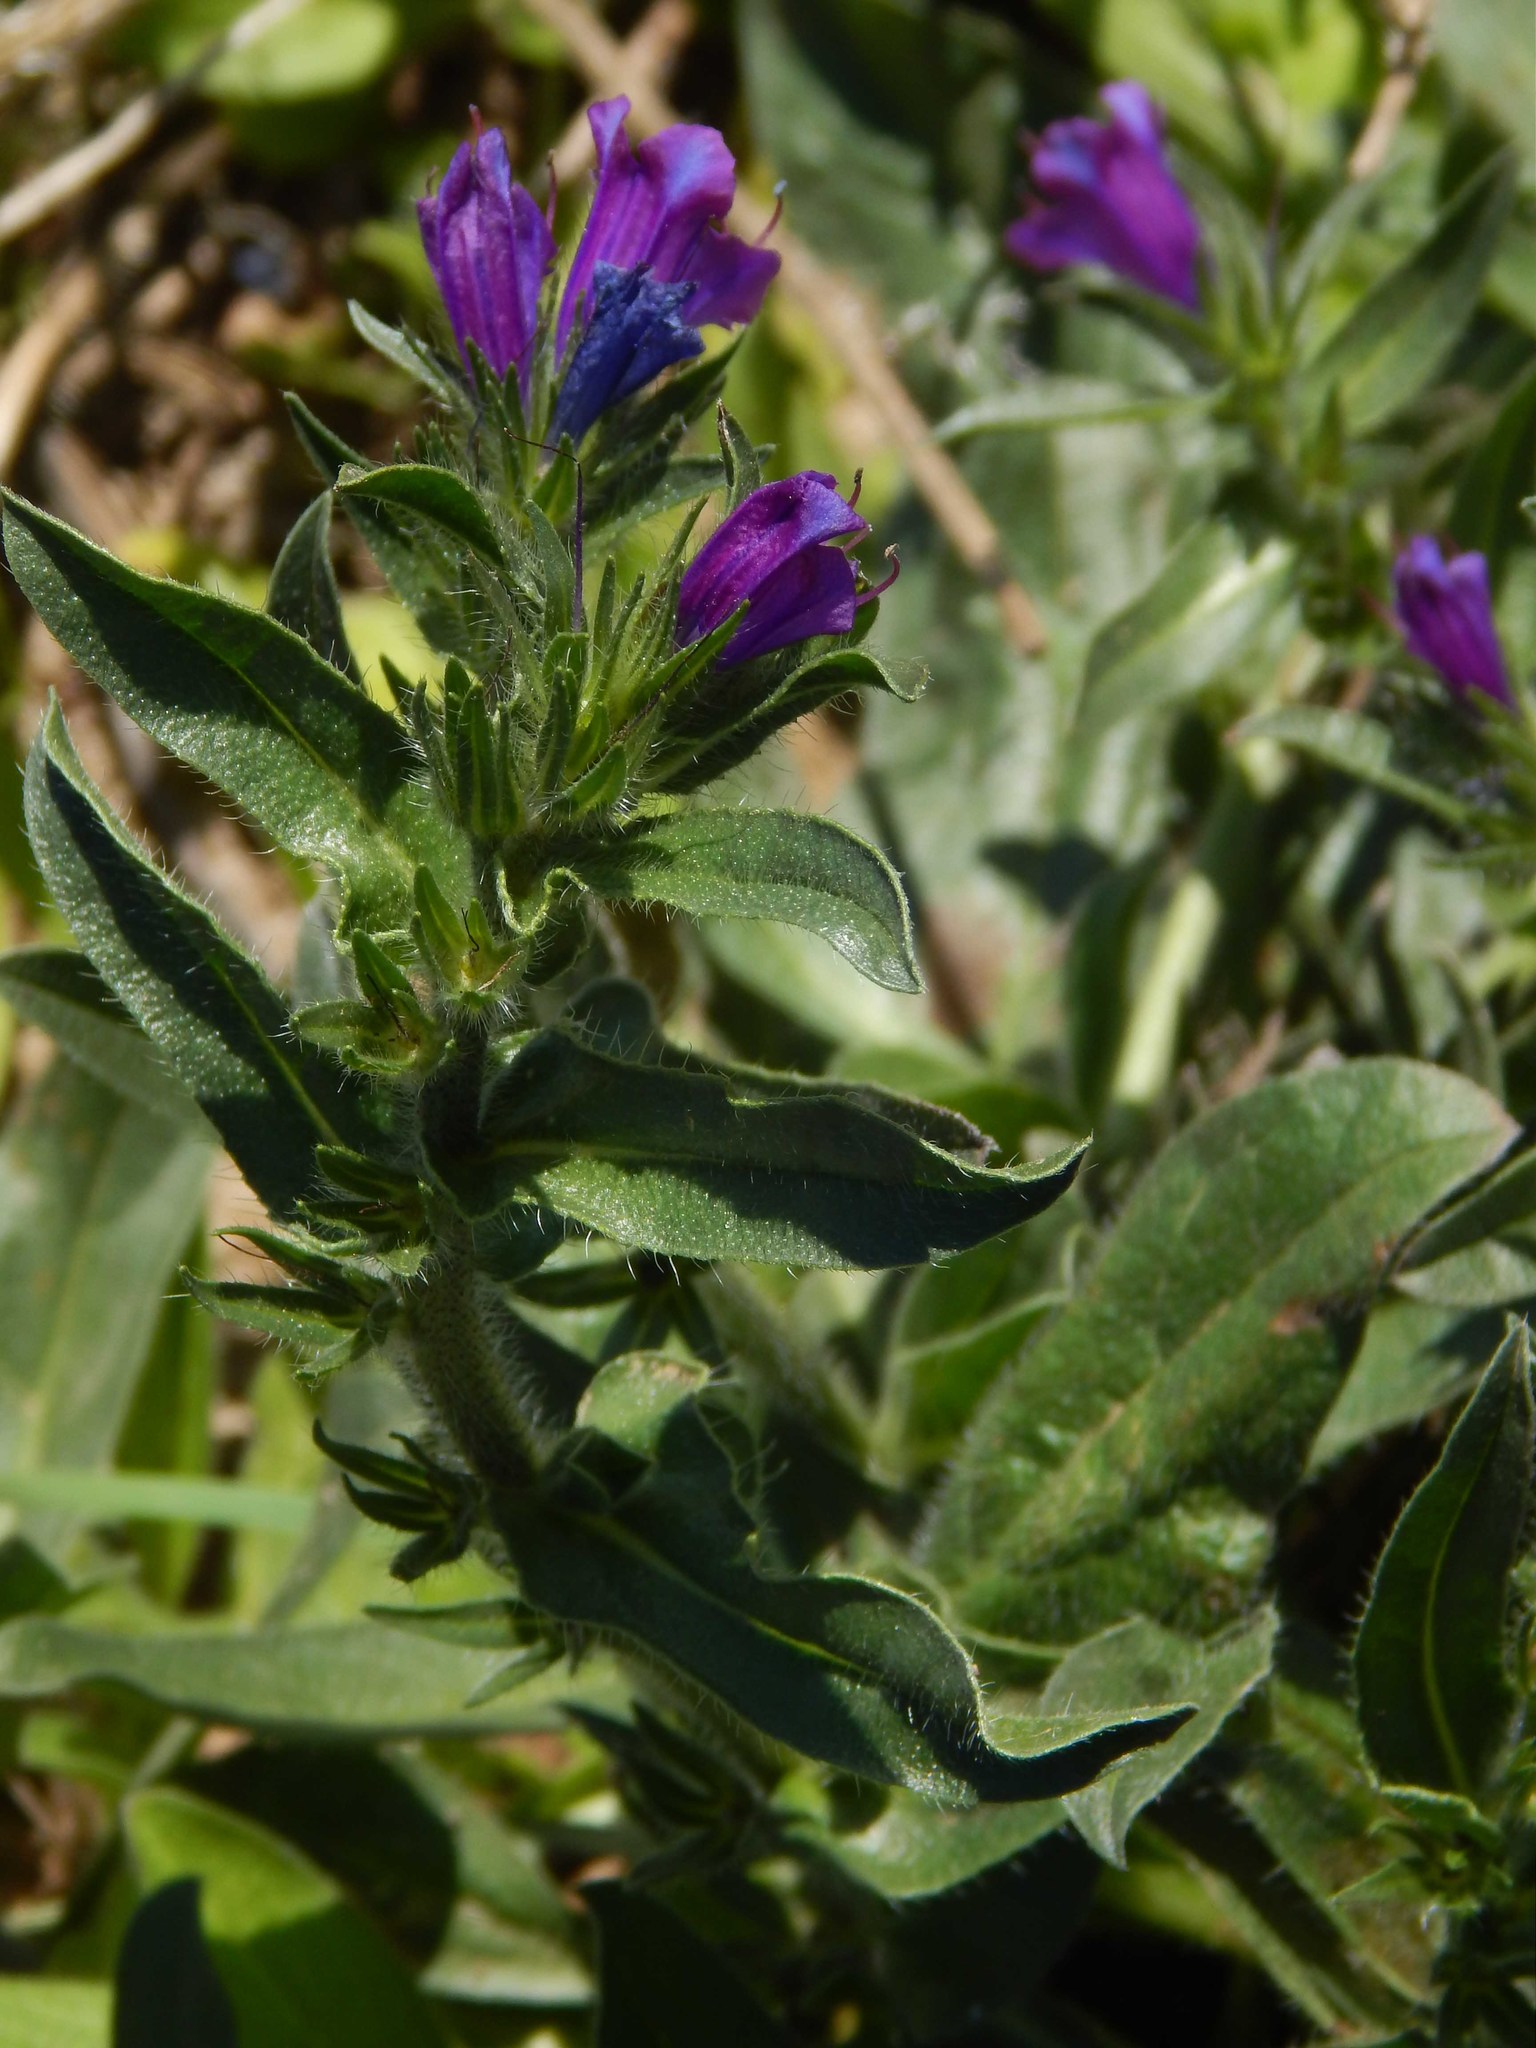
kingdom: Plantae
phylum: Tracheophyta
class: Magnoliopsida
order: Boraginales
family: Boraginaceae
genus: Echium
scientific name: Echium plantagineum
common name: Purple viper's-bugloss
